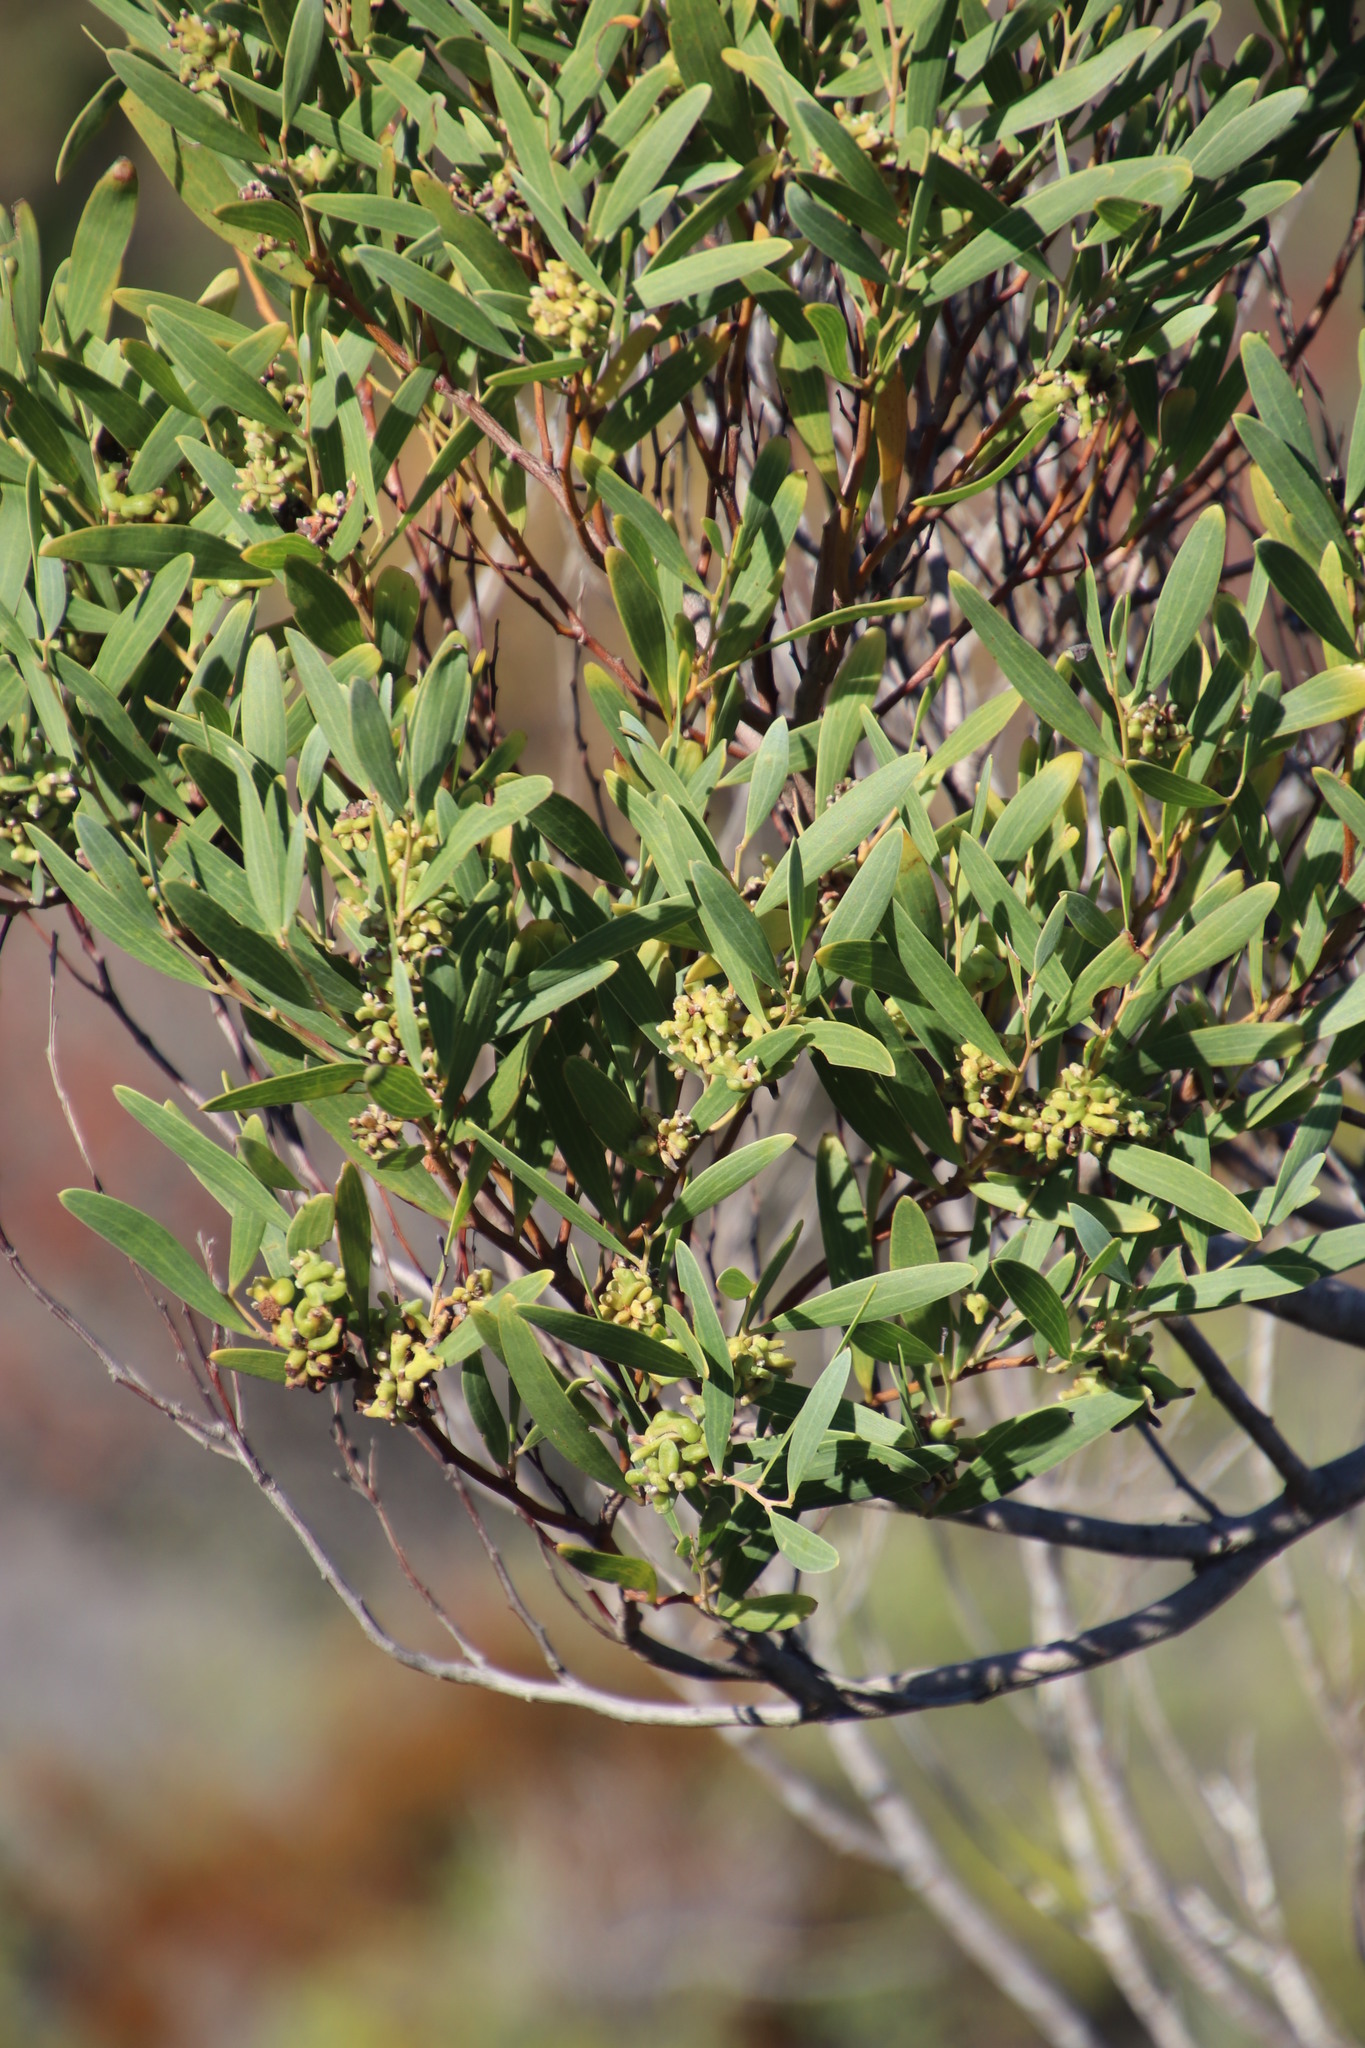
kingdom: Animalia
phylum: Arthropoda
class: Insecta
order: Diptera
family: Cecidomyiidae
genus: Dasineura
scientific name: Dasineura dielsi
